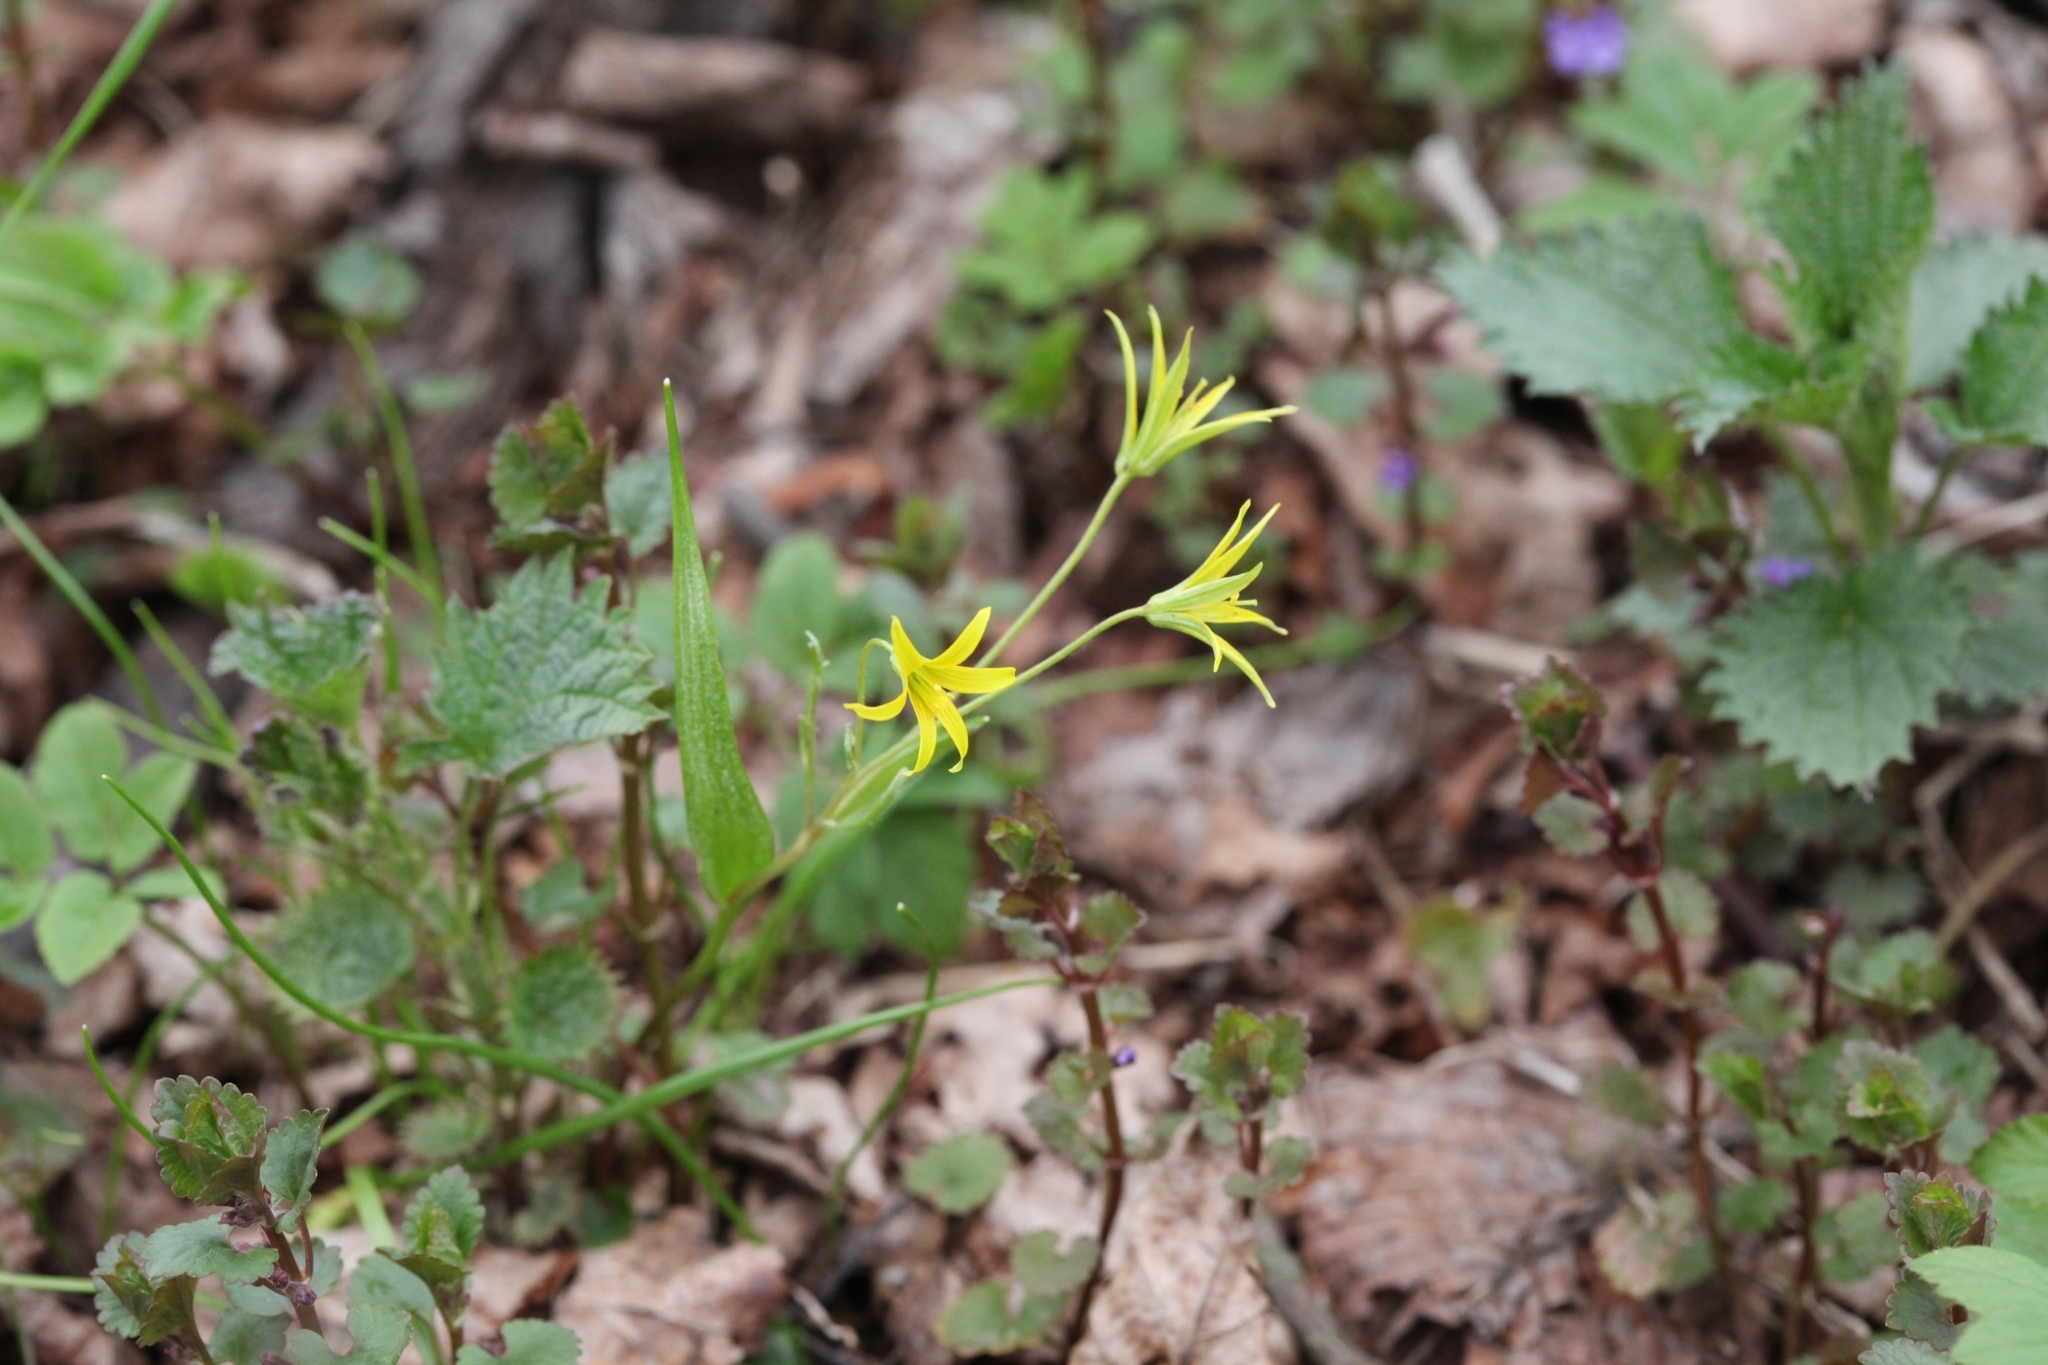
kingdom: Plantae
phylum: Tracheophyta
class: Liliopsida
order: Liliales
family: Liliaceae
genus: Gagea
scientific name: Gagea minima
